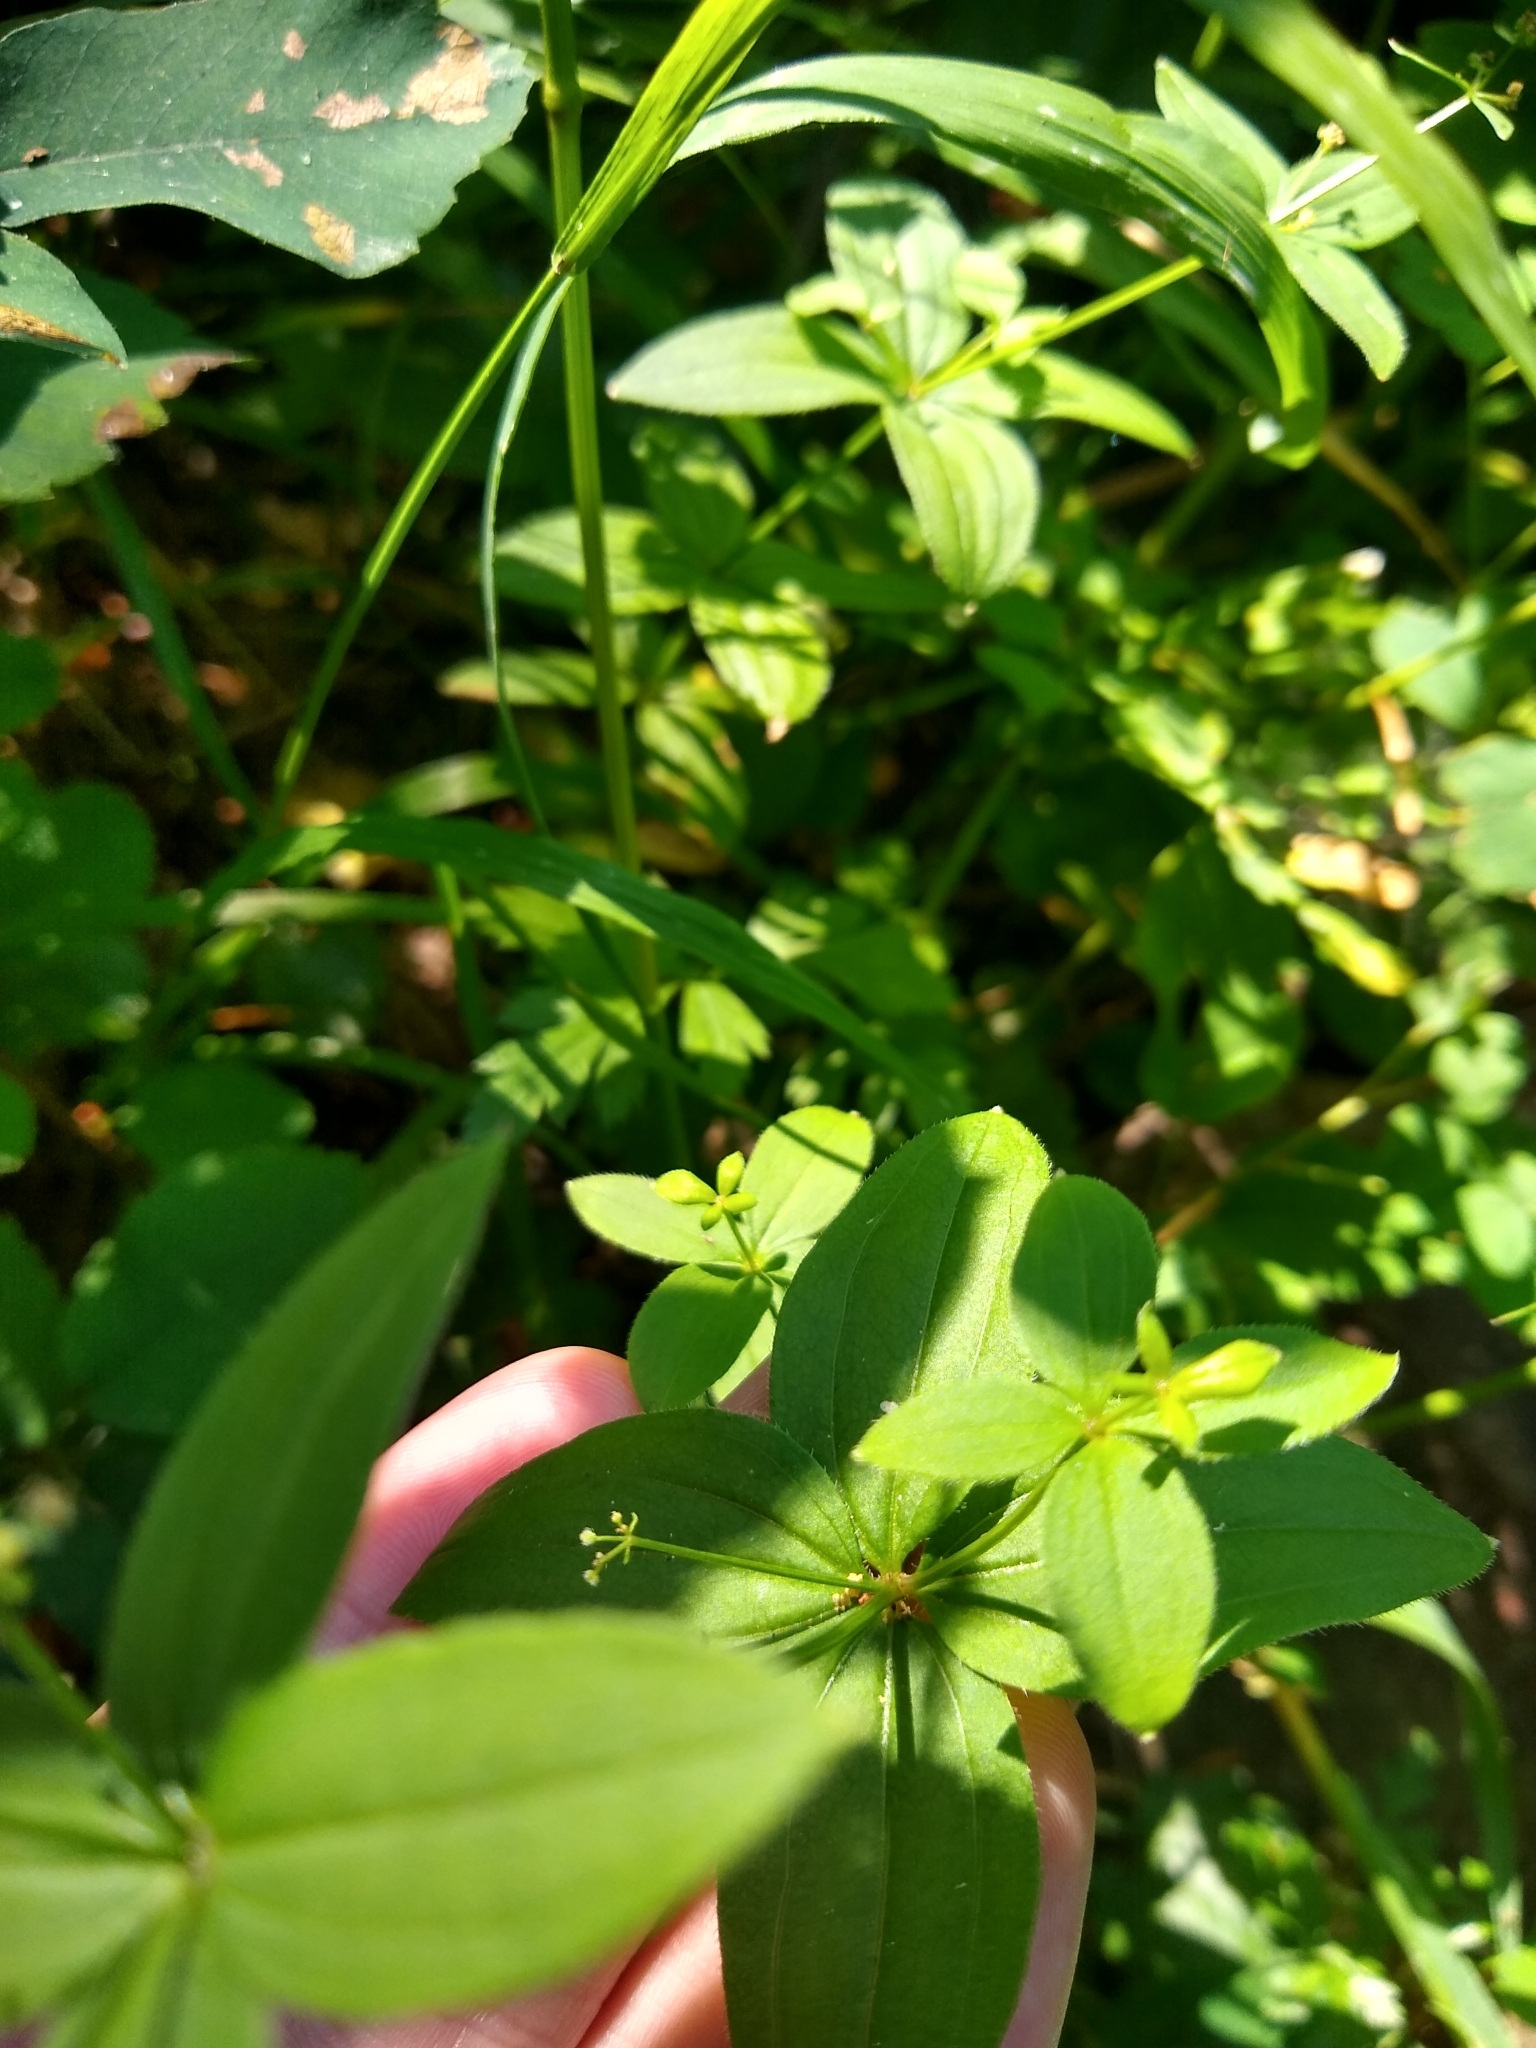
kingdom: Plantae
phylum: Tracheophyta
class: Magnoliopsida
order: Gentianales
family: Rubiaceae
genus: Galium
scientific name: Galium oreganum
